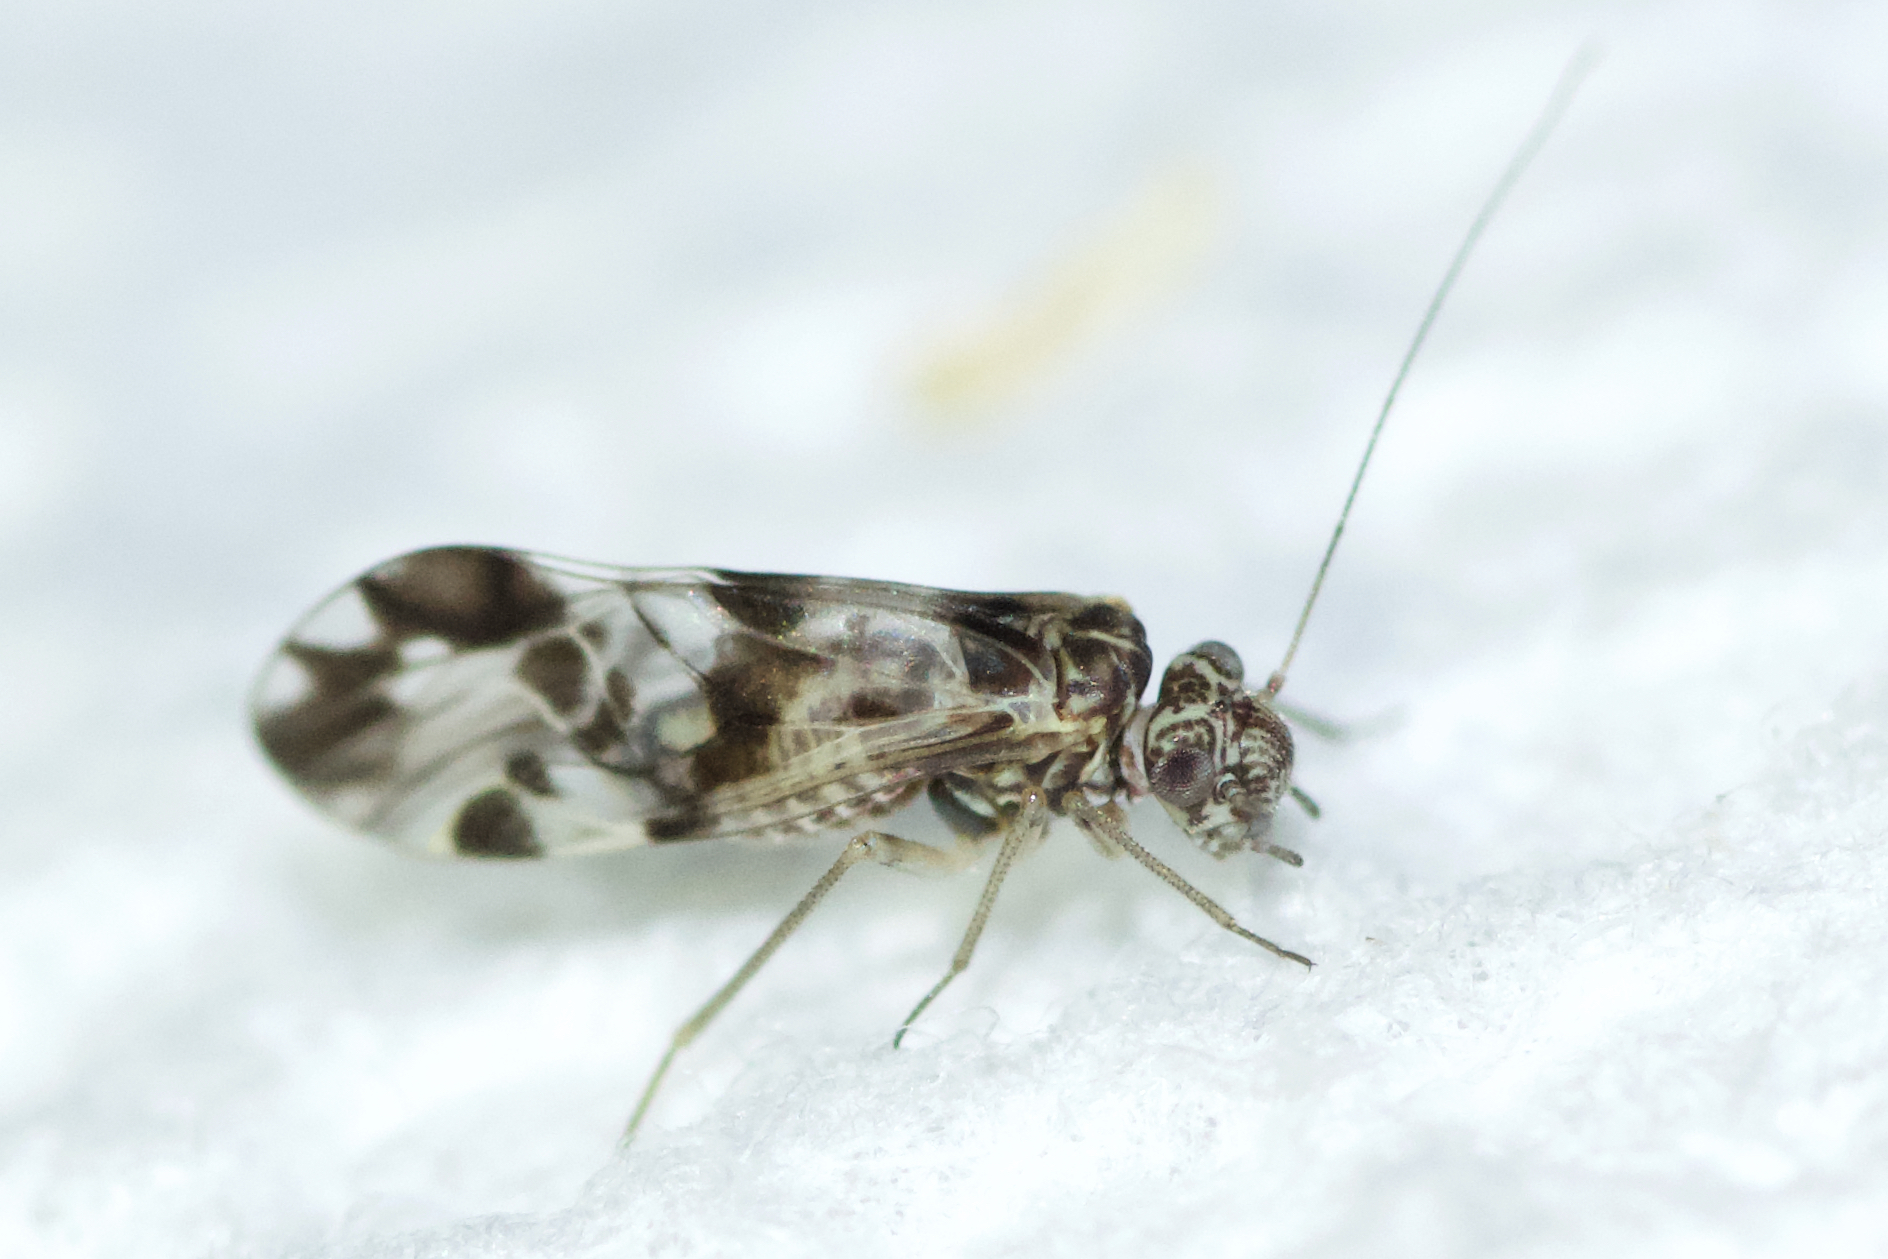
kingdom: Animalia
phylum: Arthropoda
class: Insecta
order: Psocodea
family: Psocidae
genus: Ptycta
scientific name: Ptycta polluta
